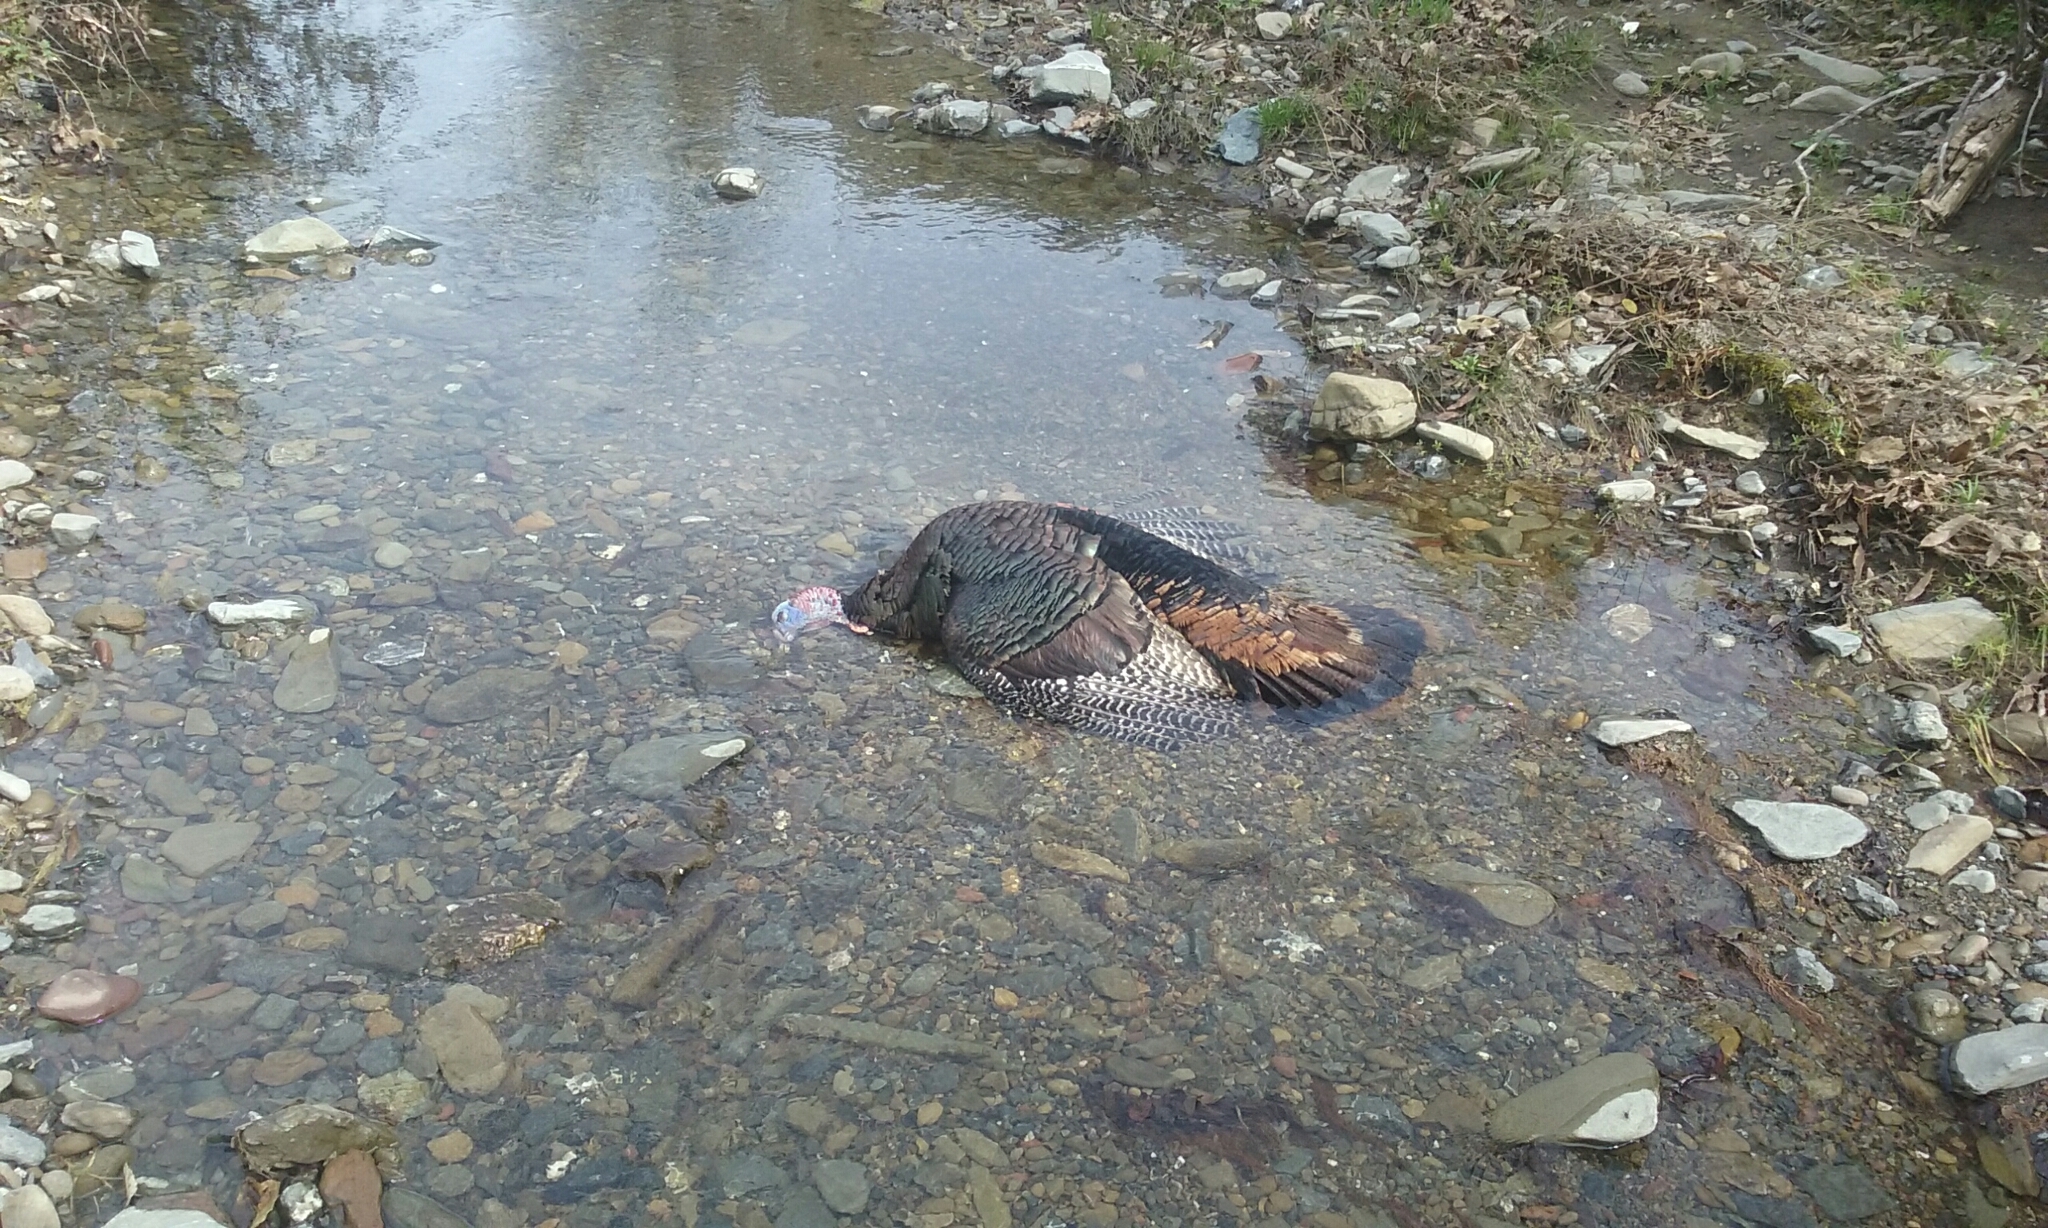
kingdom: Animalia
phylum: Chordata
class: Aves
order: Galliformes
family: Phasianidae
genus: Meleagris
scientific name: Meleagris gallopavo
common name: Wild turkey
